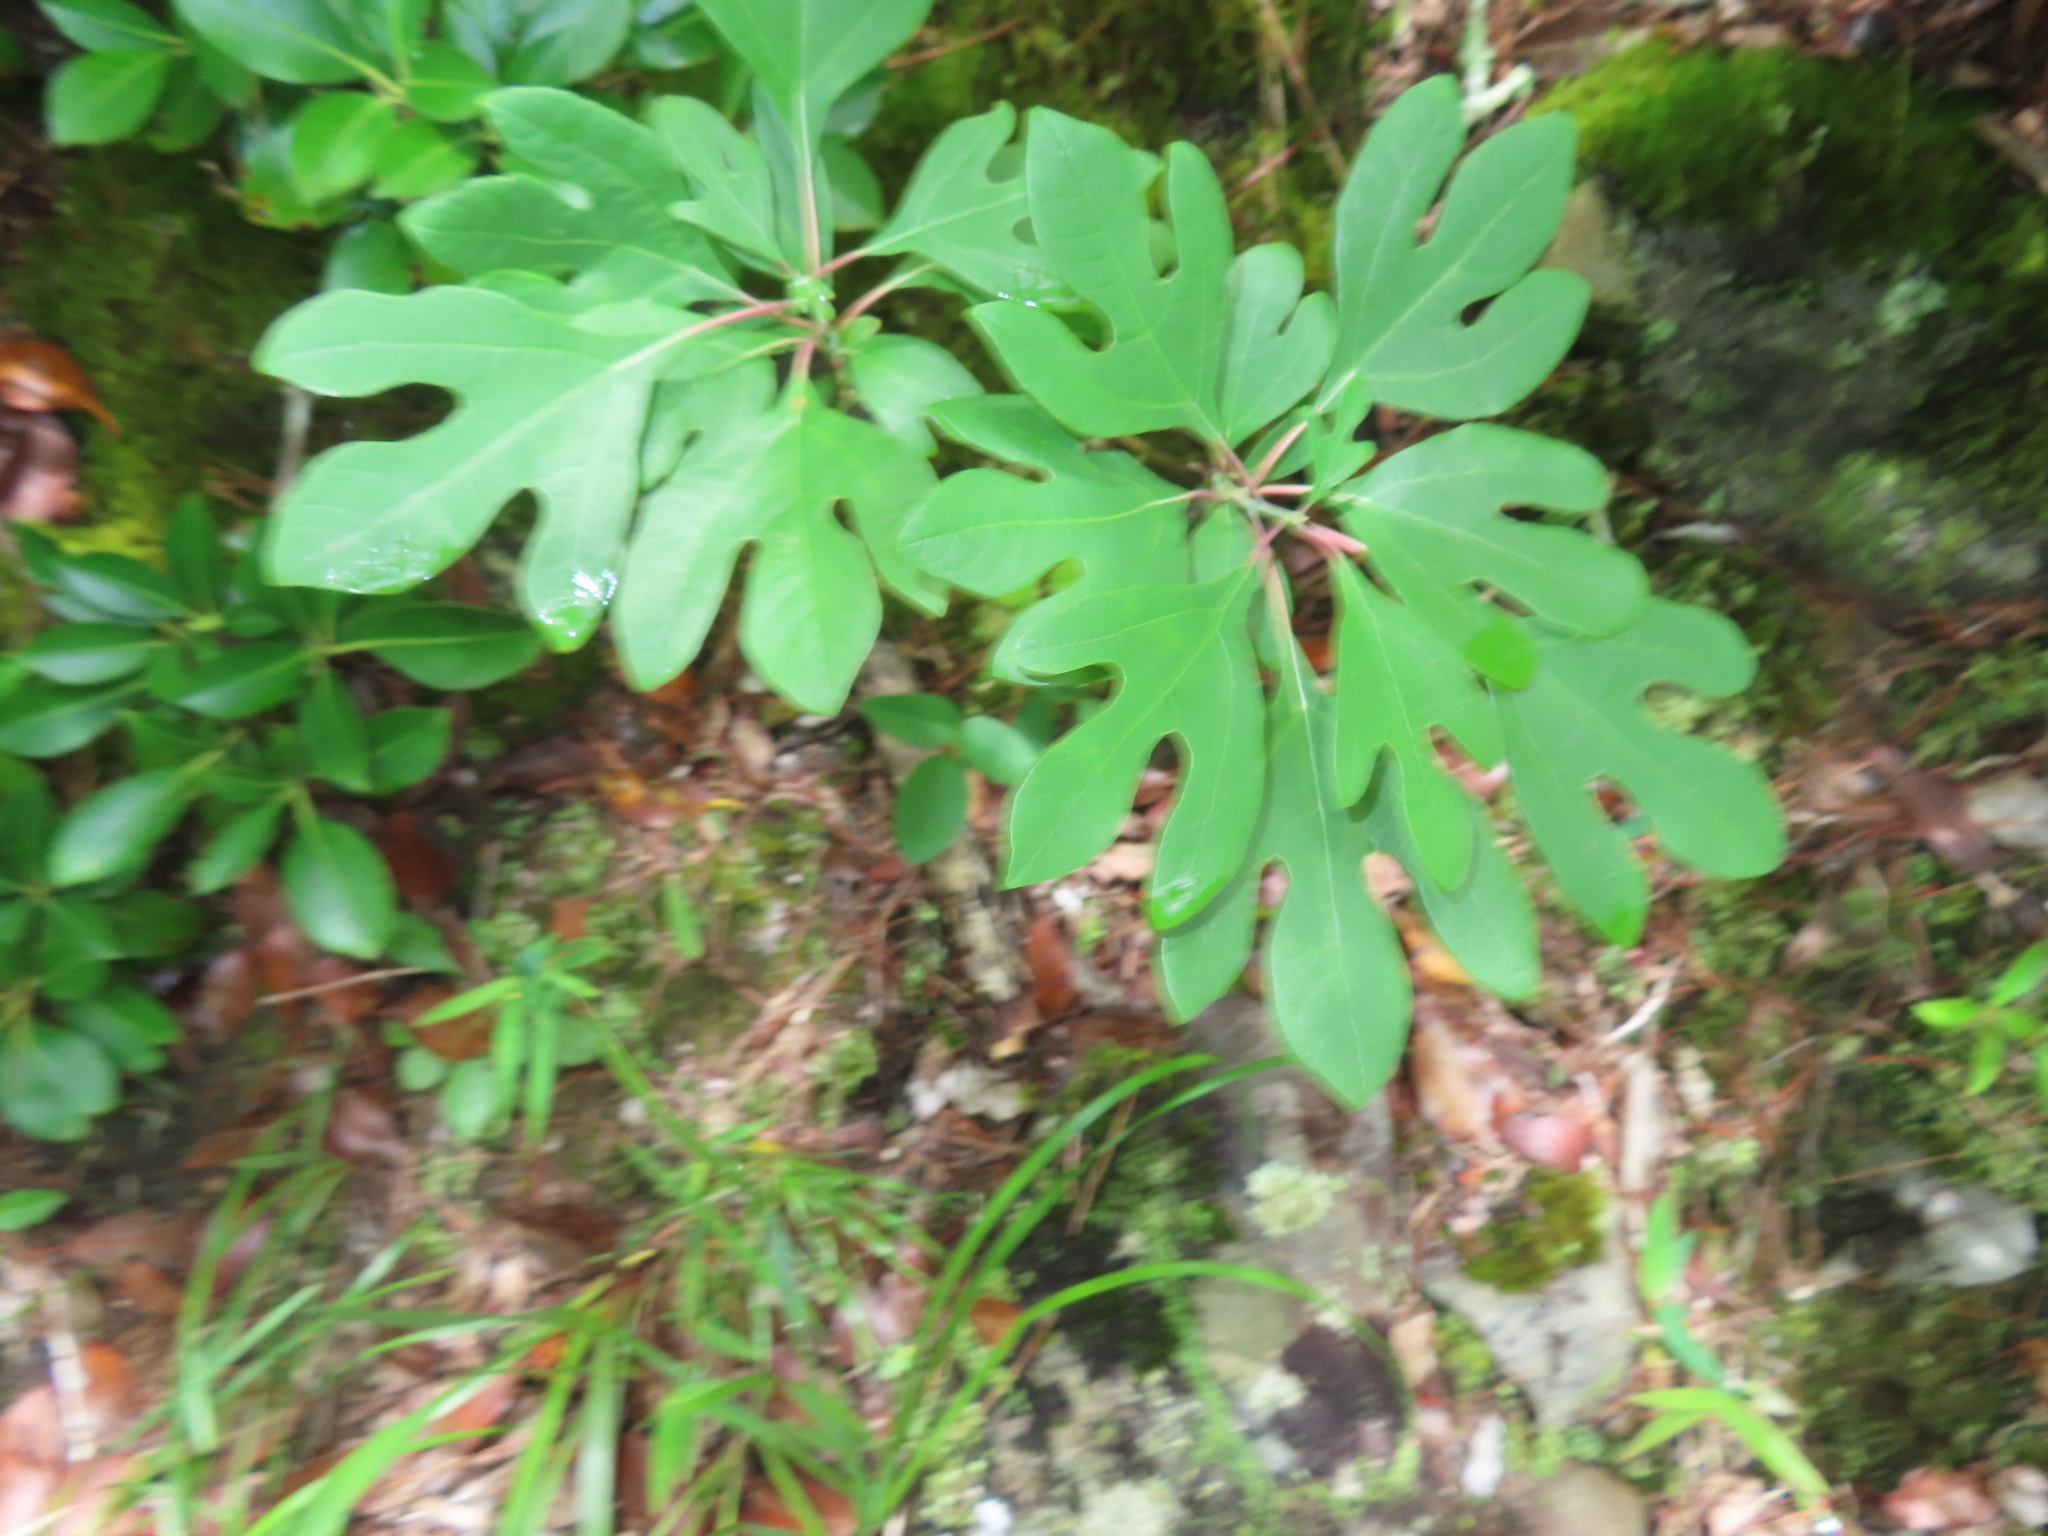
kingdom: Plantae
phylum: Tracheophyta
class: Magnoliopsida
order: Laurales
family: Lauraceae
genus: Sassafras
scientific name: Sassafras albidum
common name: Sassafras
